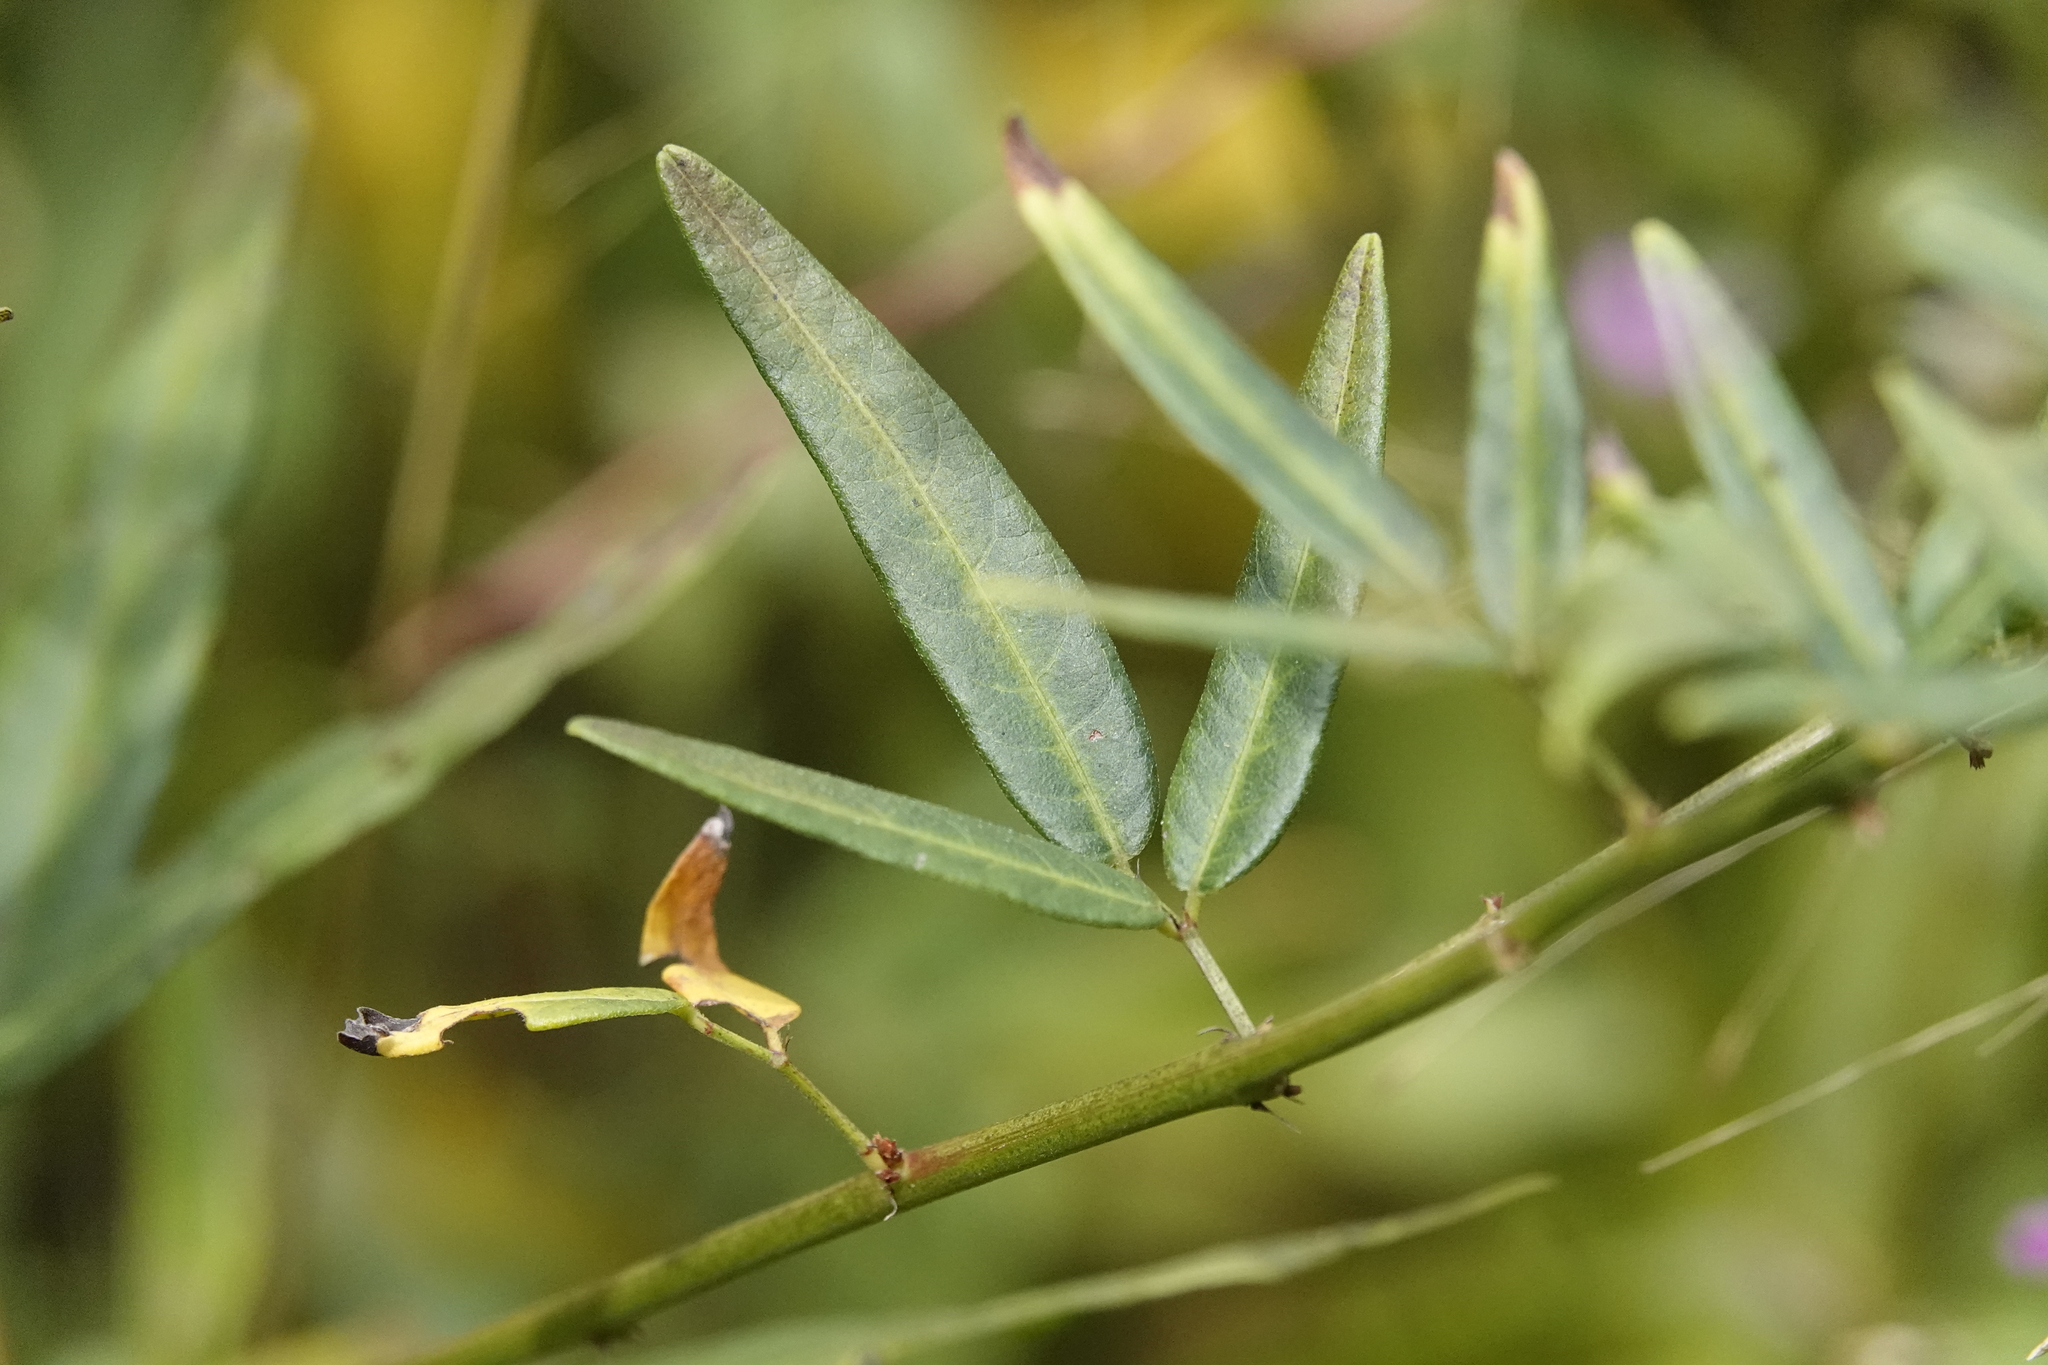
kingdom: Plantae
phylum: Tracheophyta
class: Magnoliopsida
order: Fabales
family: Fabaceae
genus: Desmodium
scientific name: Desmodium paniculatum
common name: Panicled tick-clover
